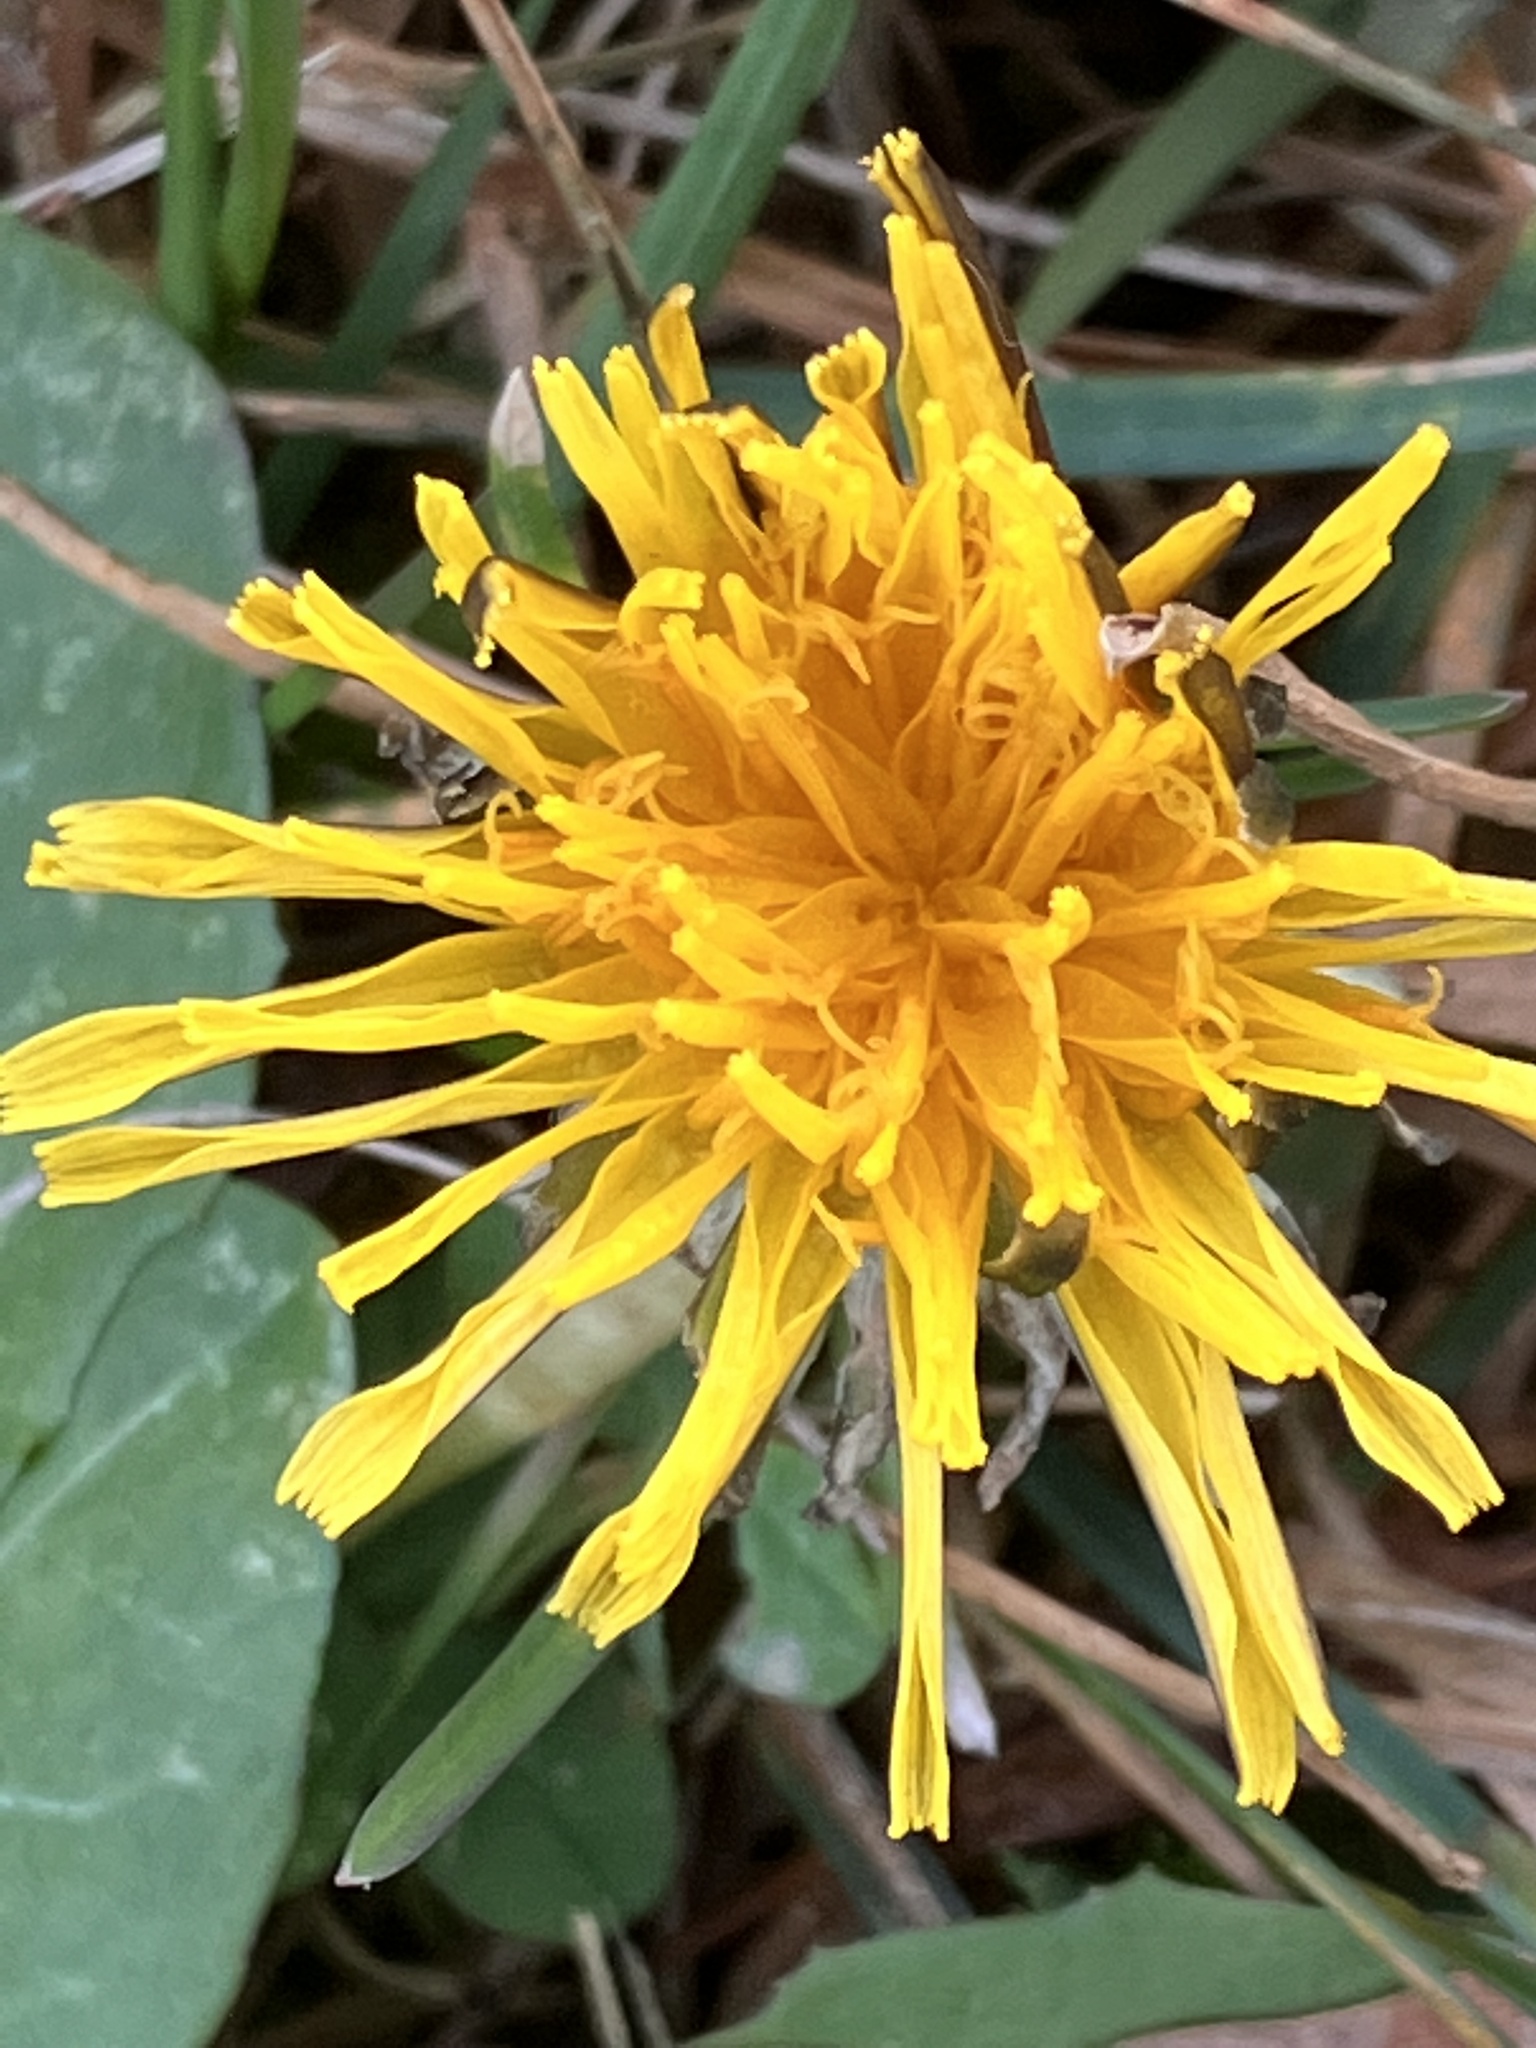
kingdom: Plantae
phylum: Tracheophyta
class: Magnoliopsida
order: Asterales
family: Asteraceae
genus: Taraxacum
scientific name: Taraxacum
